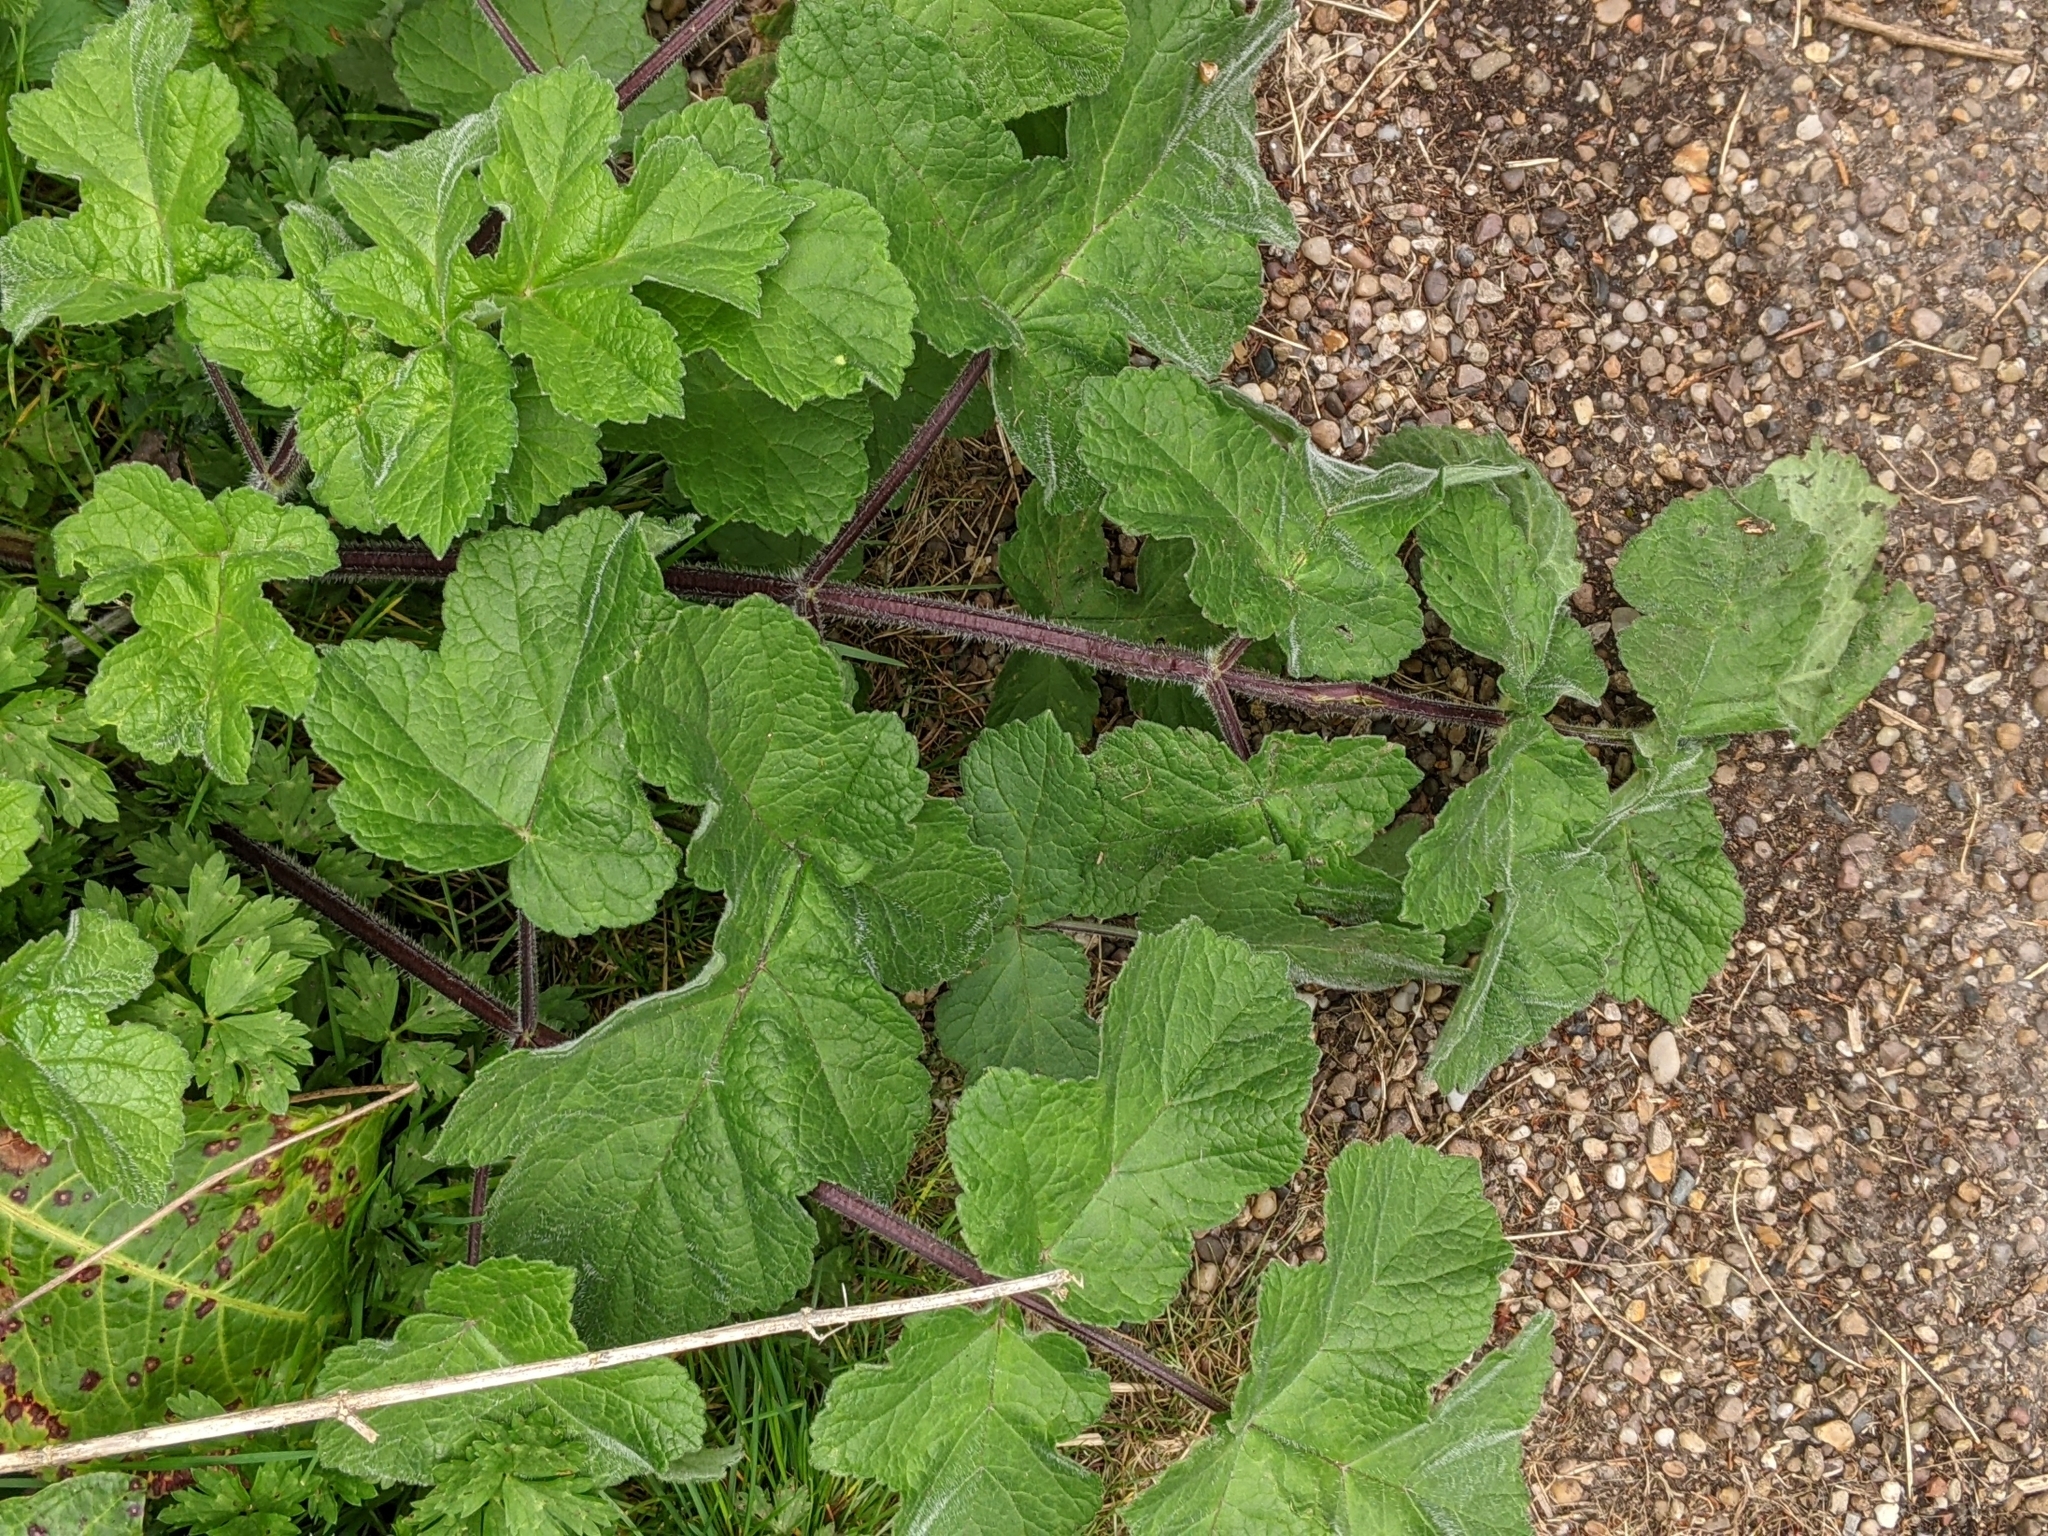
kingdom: Plantae
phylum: Tracheophyta
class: Magnoliopsida
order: Apiales
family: Apiaceae
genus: Heracleum
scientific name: Heracleum sphondylium
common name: Hogweed
